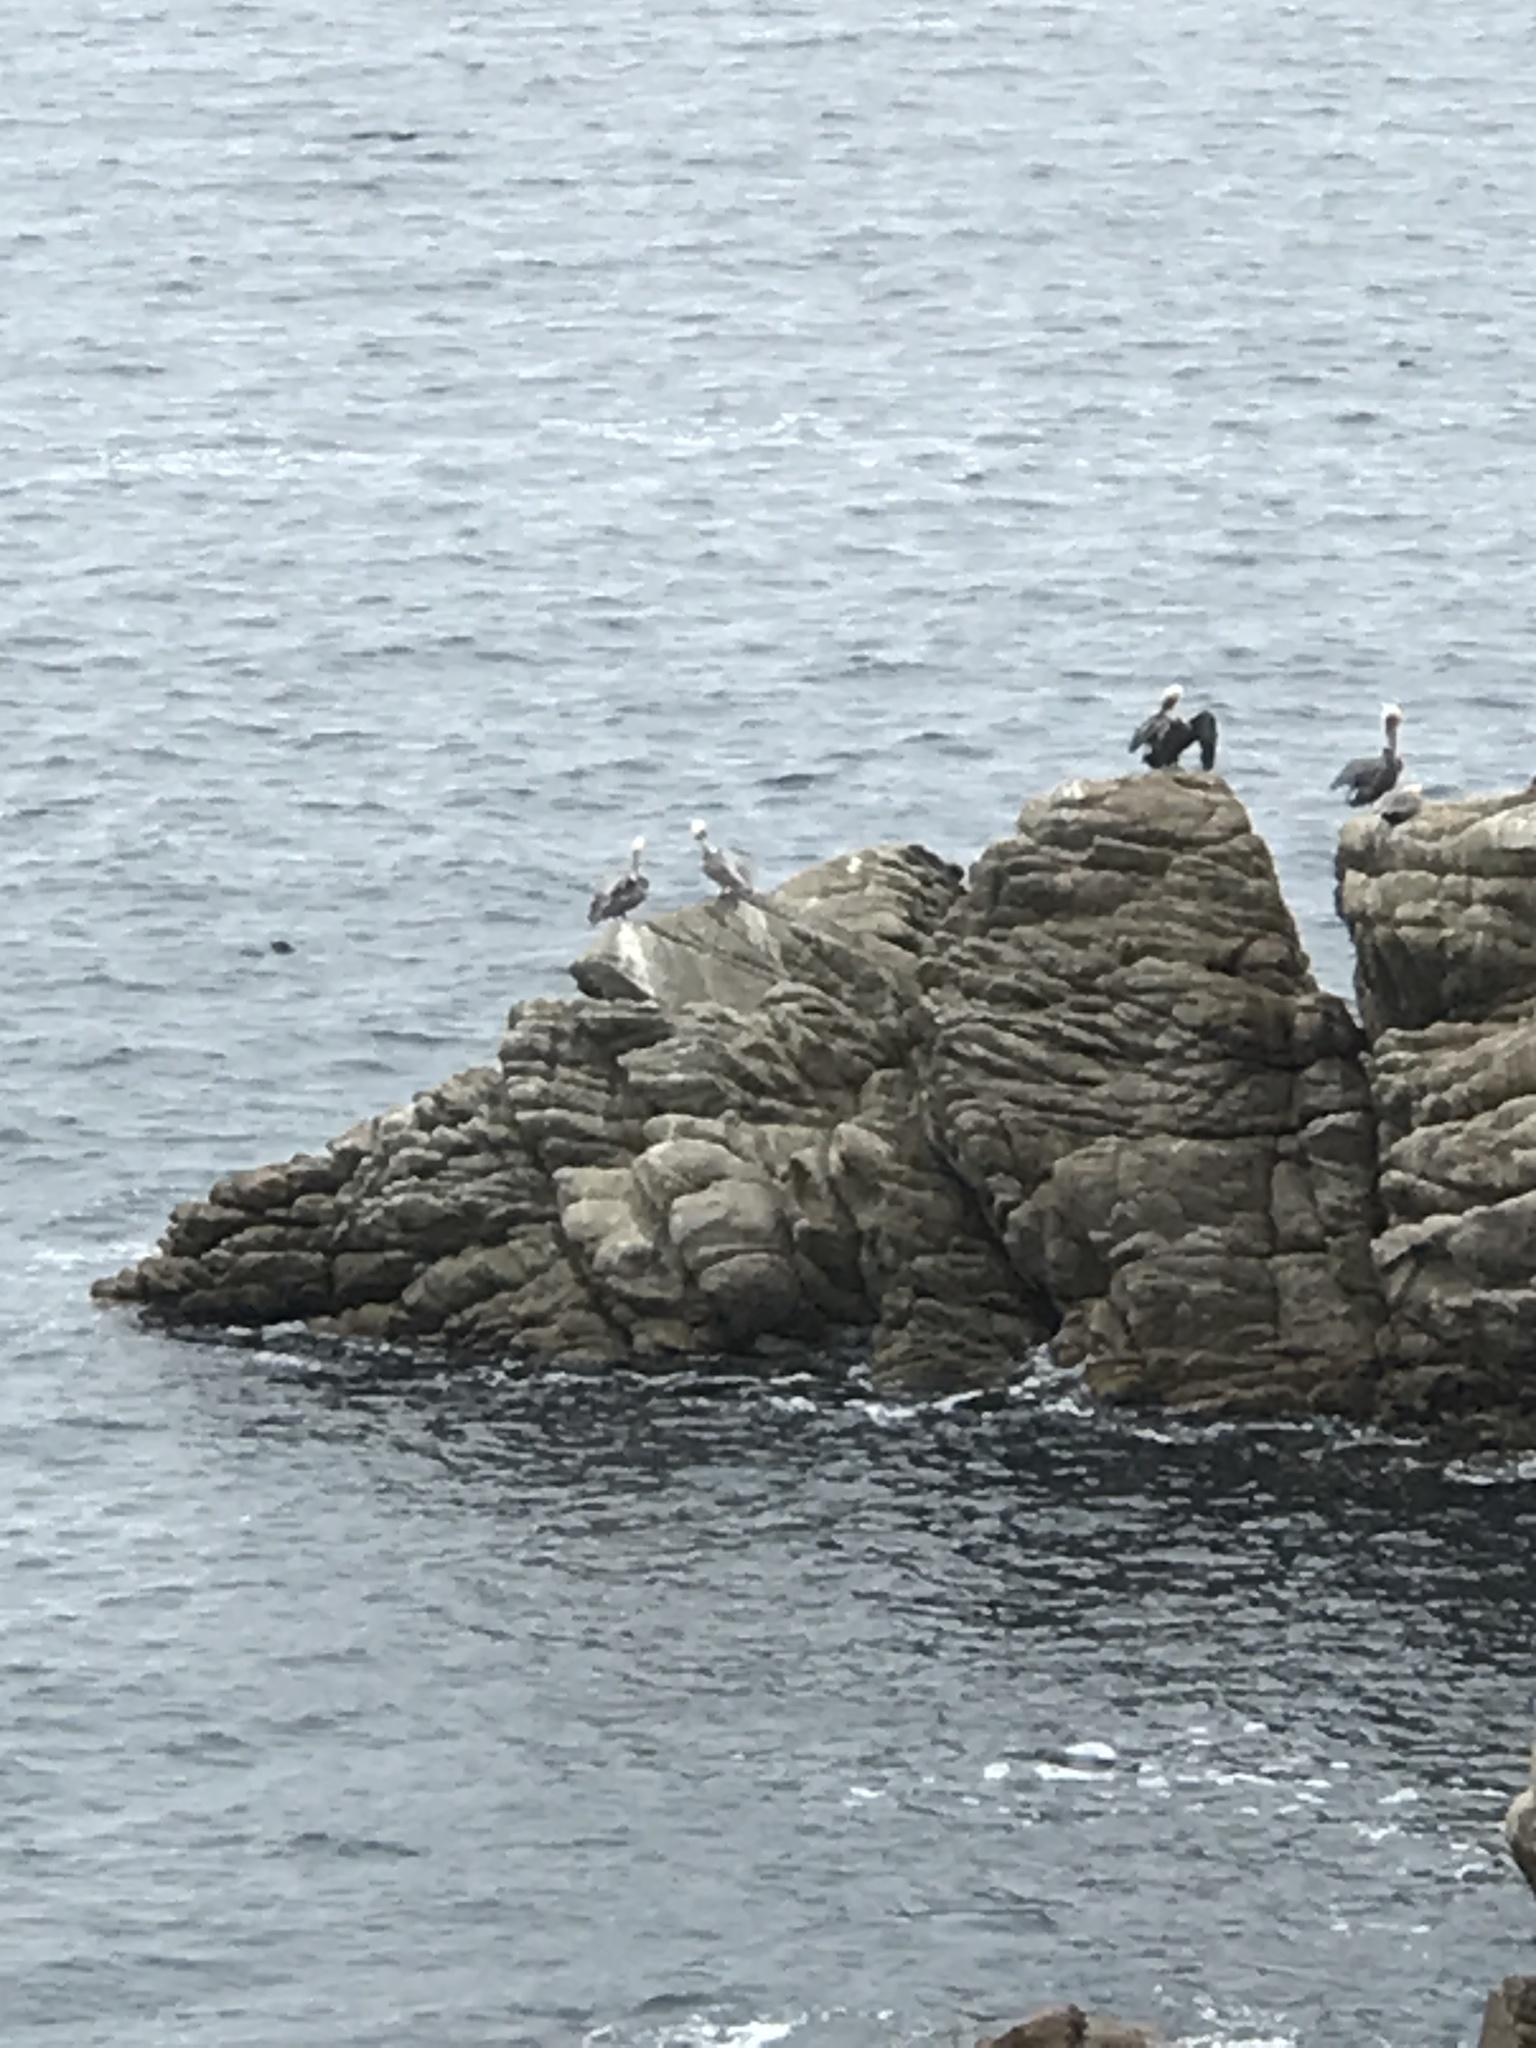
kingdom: Animalia
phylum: Chordata
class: Aves
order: Pelecaniformes
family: Pelecanidae
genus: Pelecanus
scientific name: Pelecanus occidentalis
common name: Brown pelican
